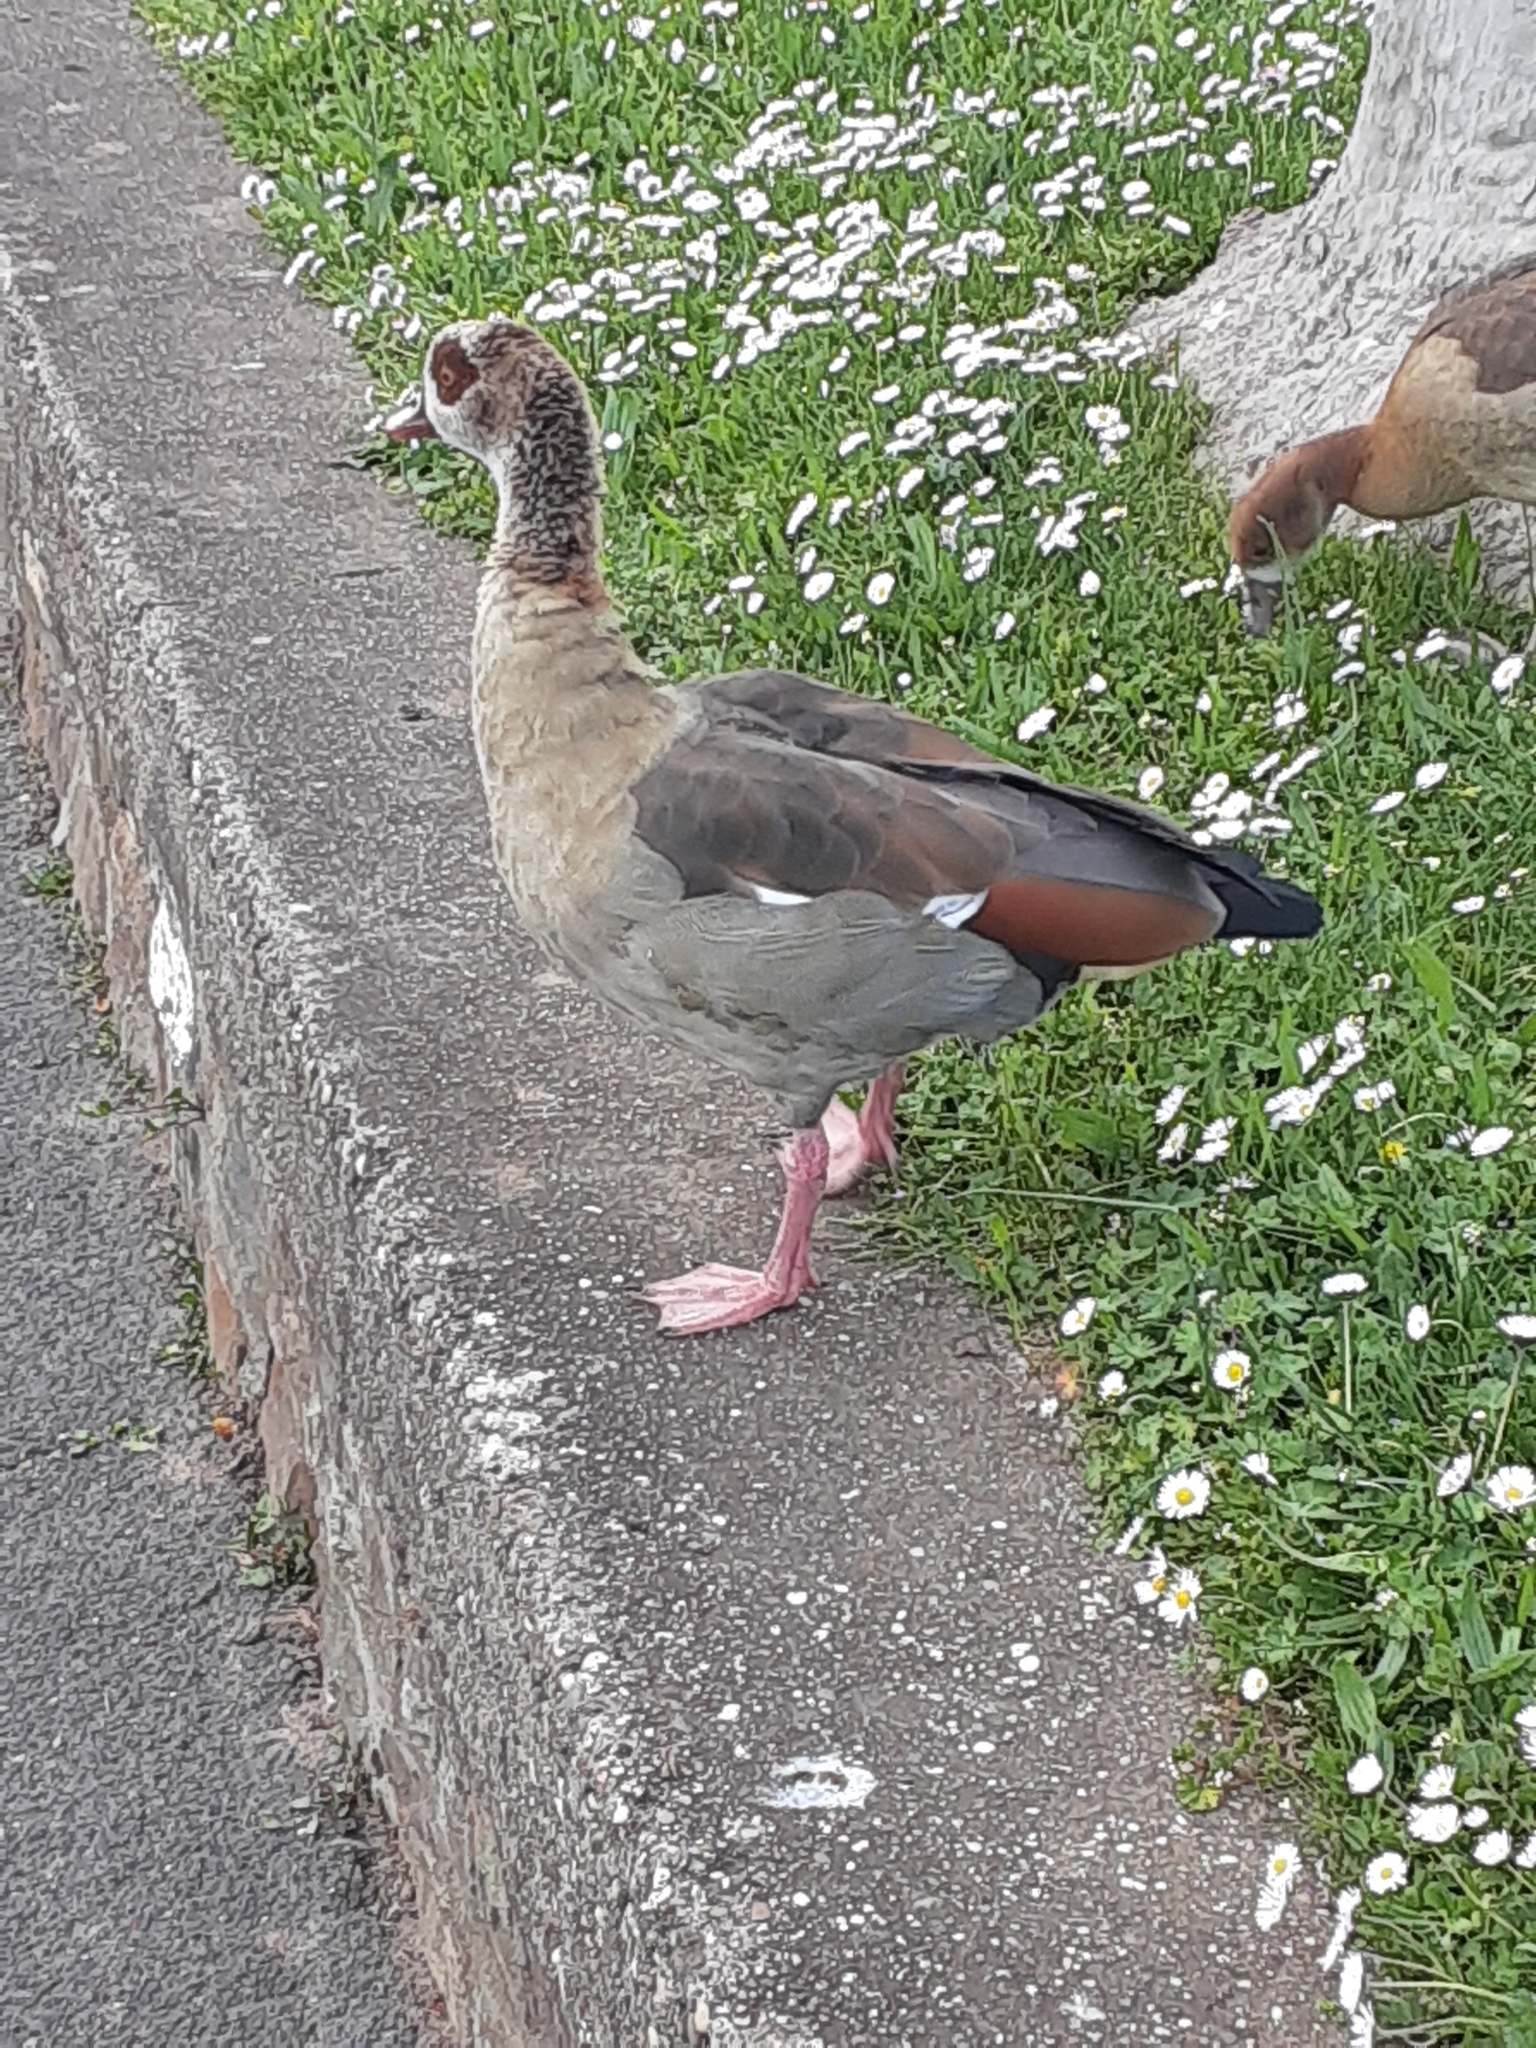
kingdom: Animalia
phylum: Chordata
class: Aves
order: Anseriformes
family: Anatidae
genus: Alopochen
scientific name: Alopochen aegyptiaca
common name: Egyptian goose
